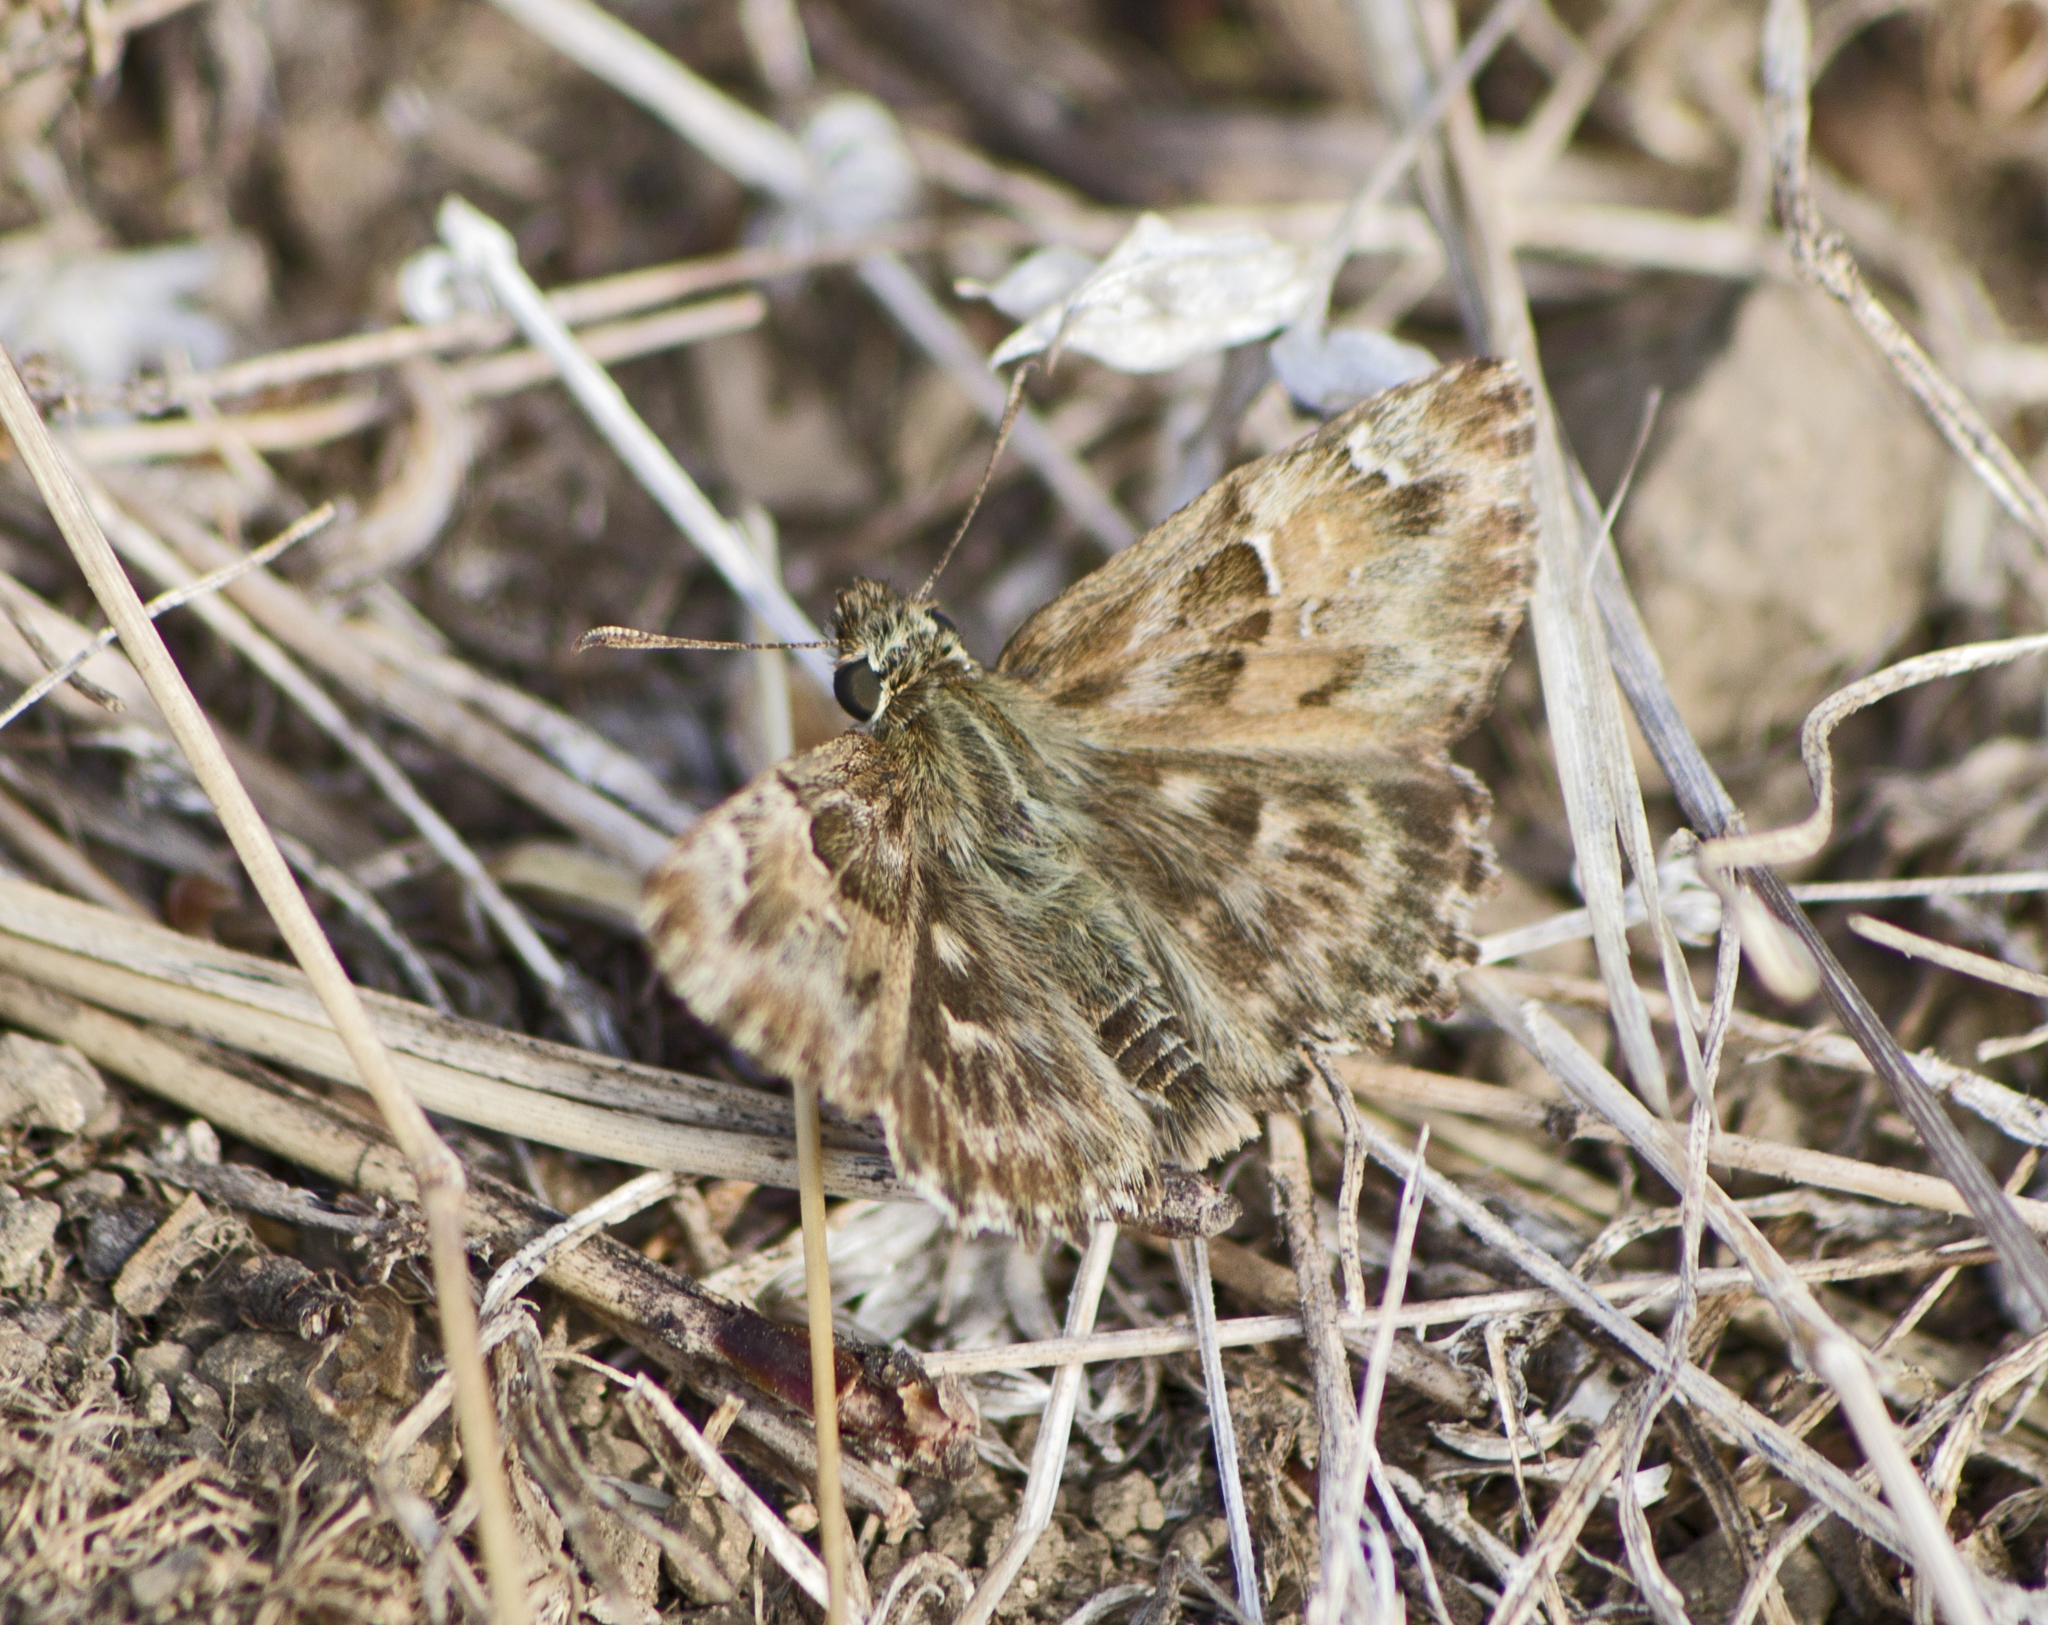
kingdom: Animalia
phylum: Arthropoda
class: Insecta
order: Lepidoptera
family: Hesperiidae
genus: Carcharodus
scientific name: Carcharodus alceae
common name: Mallow skipper
